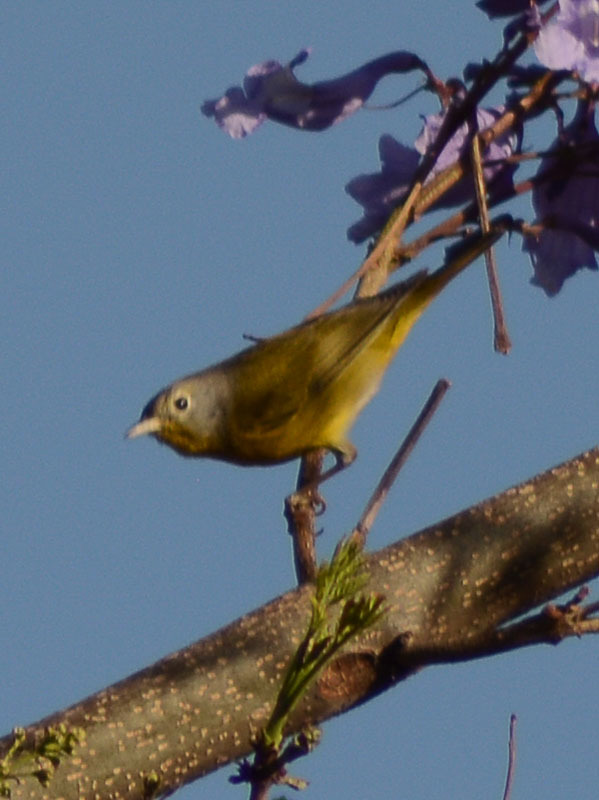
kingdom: Animalia
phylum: Chordata
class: Aves
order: Passeriformes
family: Parulidae
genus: Leiothlypis
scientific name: Leiothlypis ruficapilla
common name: Nashville warbler
